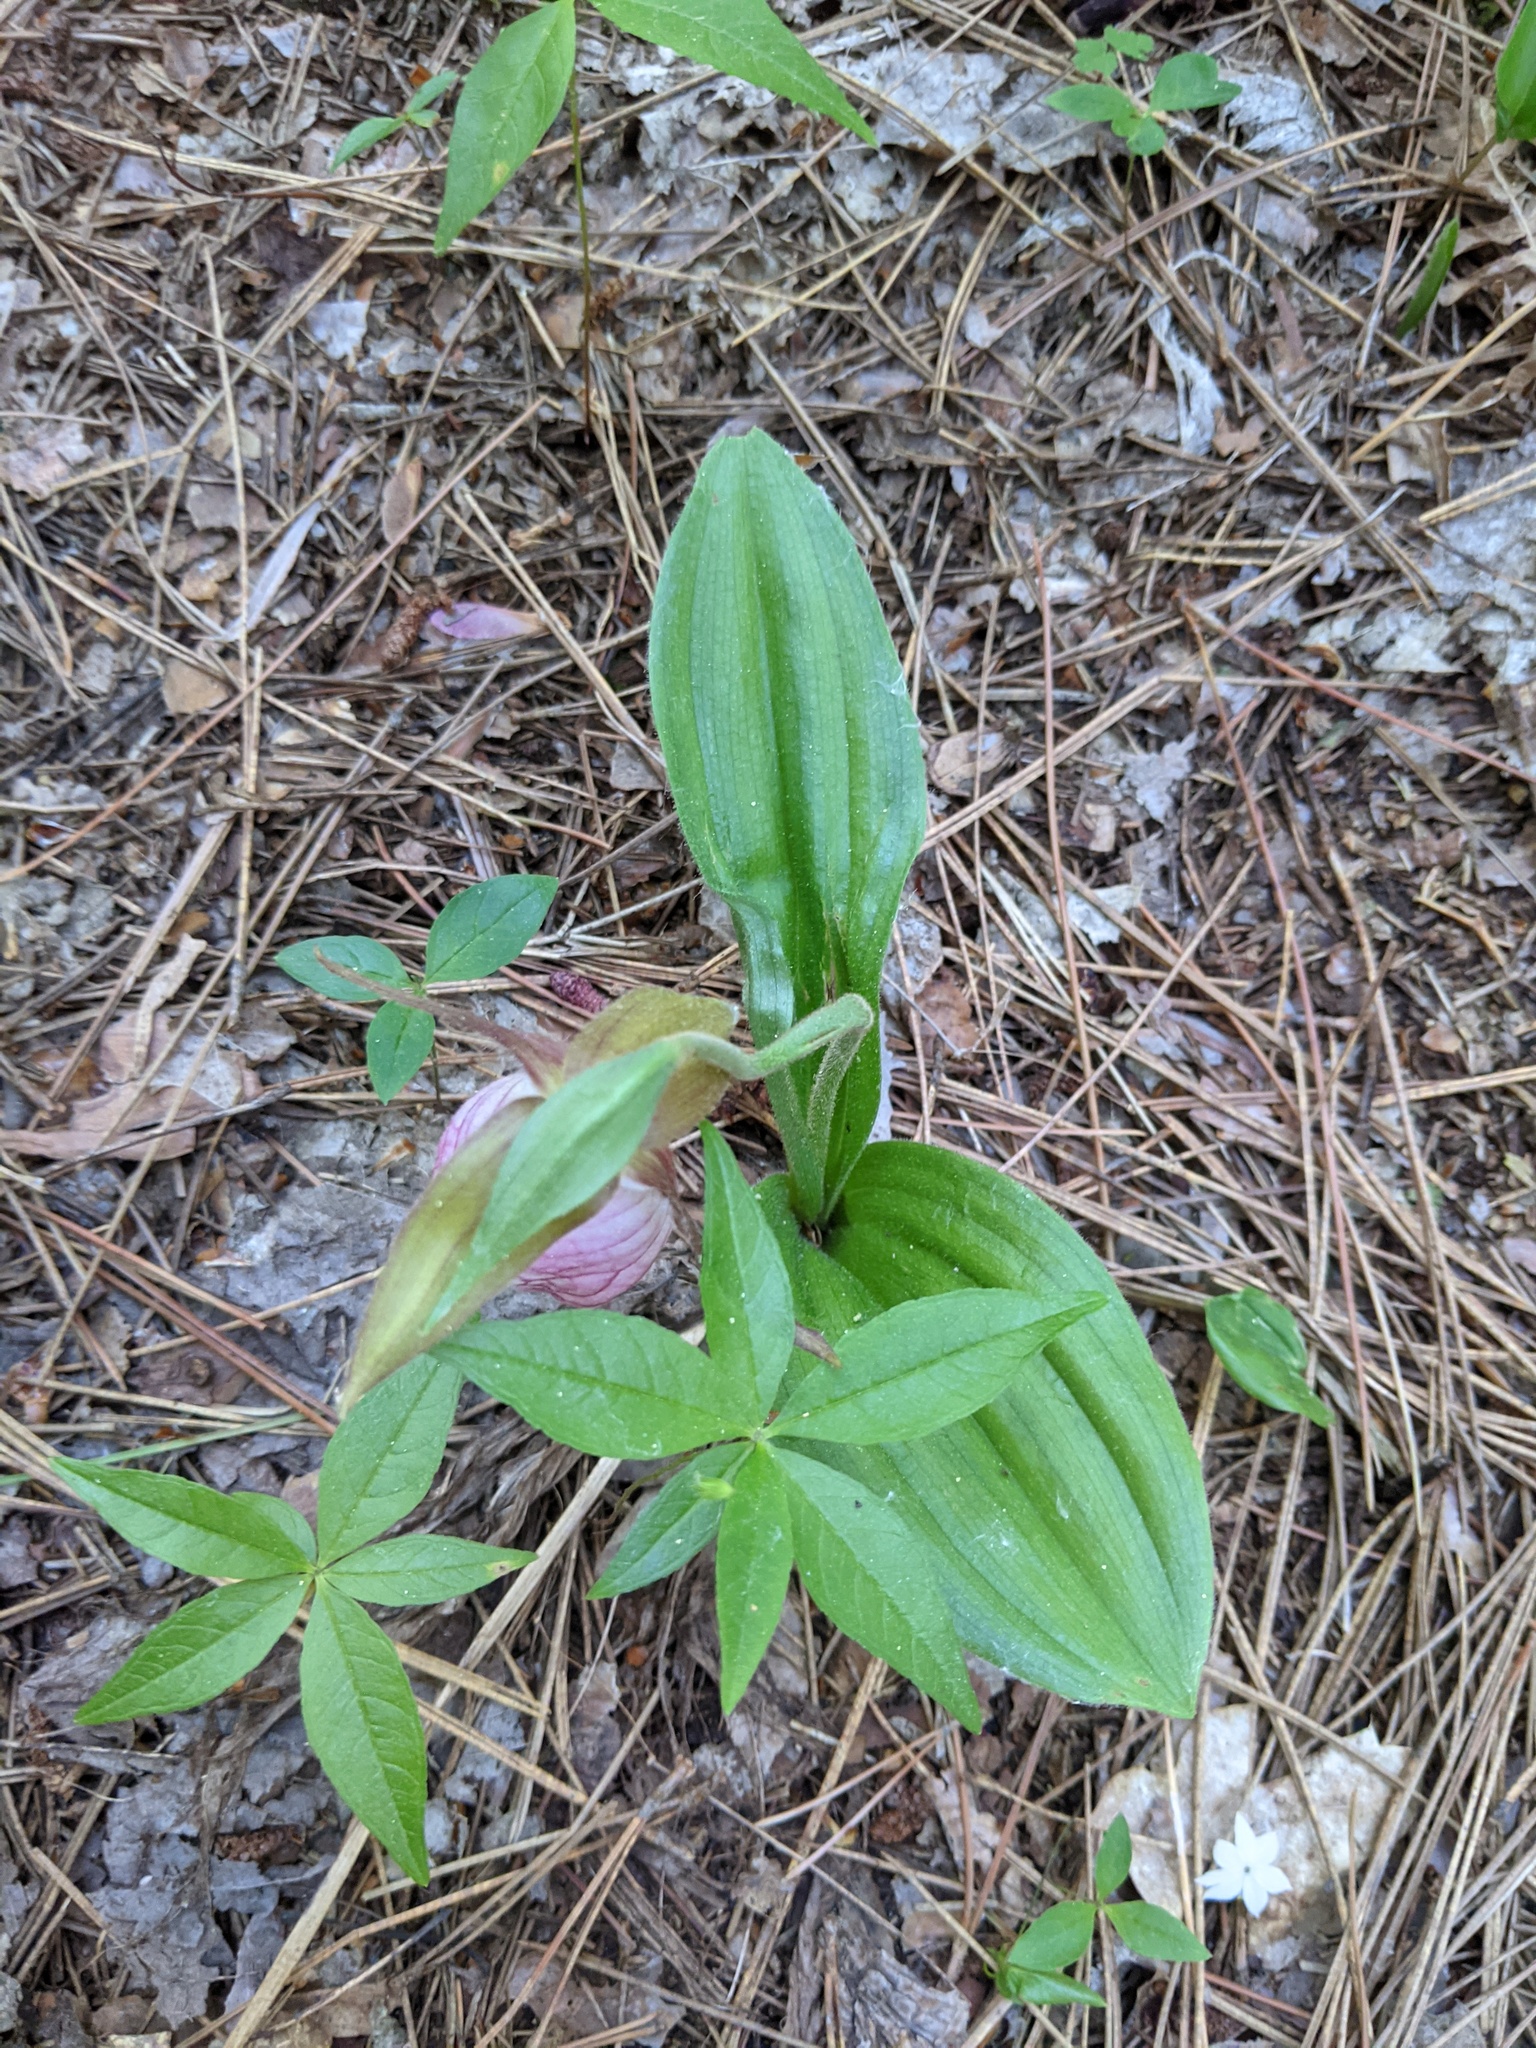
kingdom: Plantae
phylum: Tracheophyta
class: Liliopsida
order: Asparagales
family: Orchidaceae
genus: Cypripedium
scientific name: Cypripedium acaule
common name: Pink lady's-slipper
